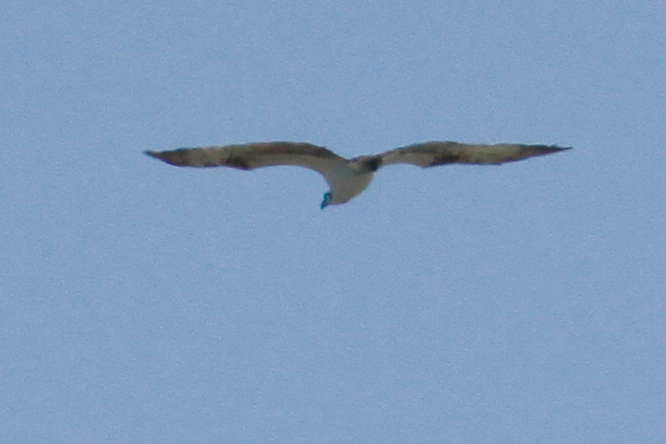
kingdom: Animalia
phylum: Chordata
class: Aves
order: Accipitriformes
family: Pandionidae
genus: Pandion
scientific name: Pandion haliaetus
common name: Osprey
